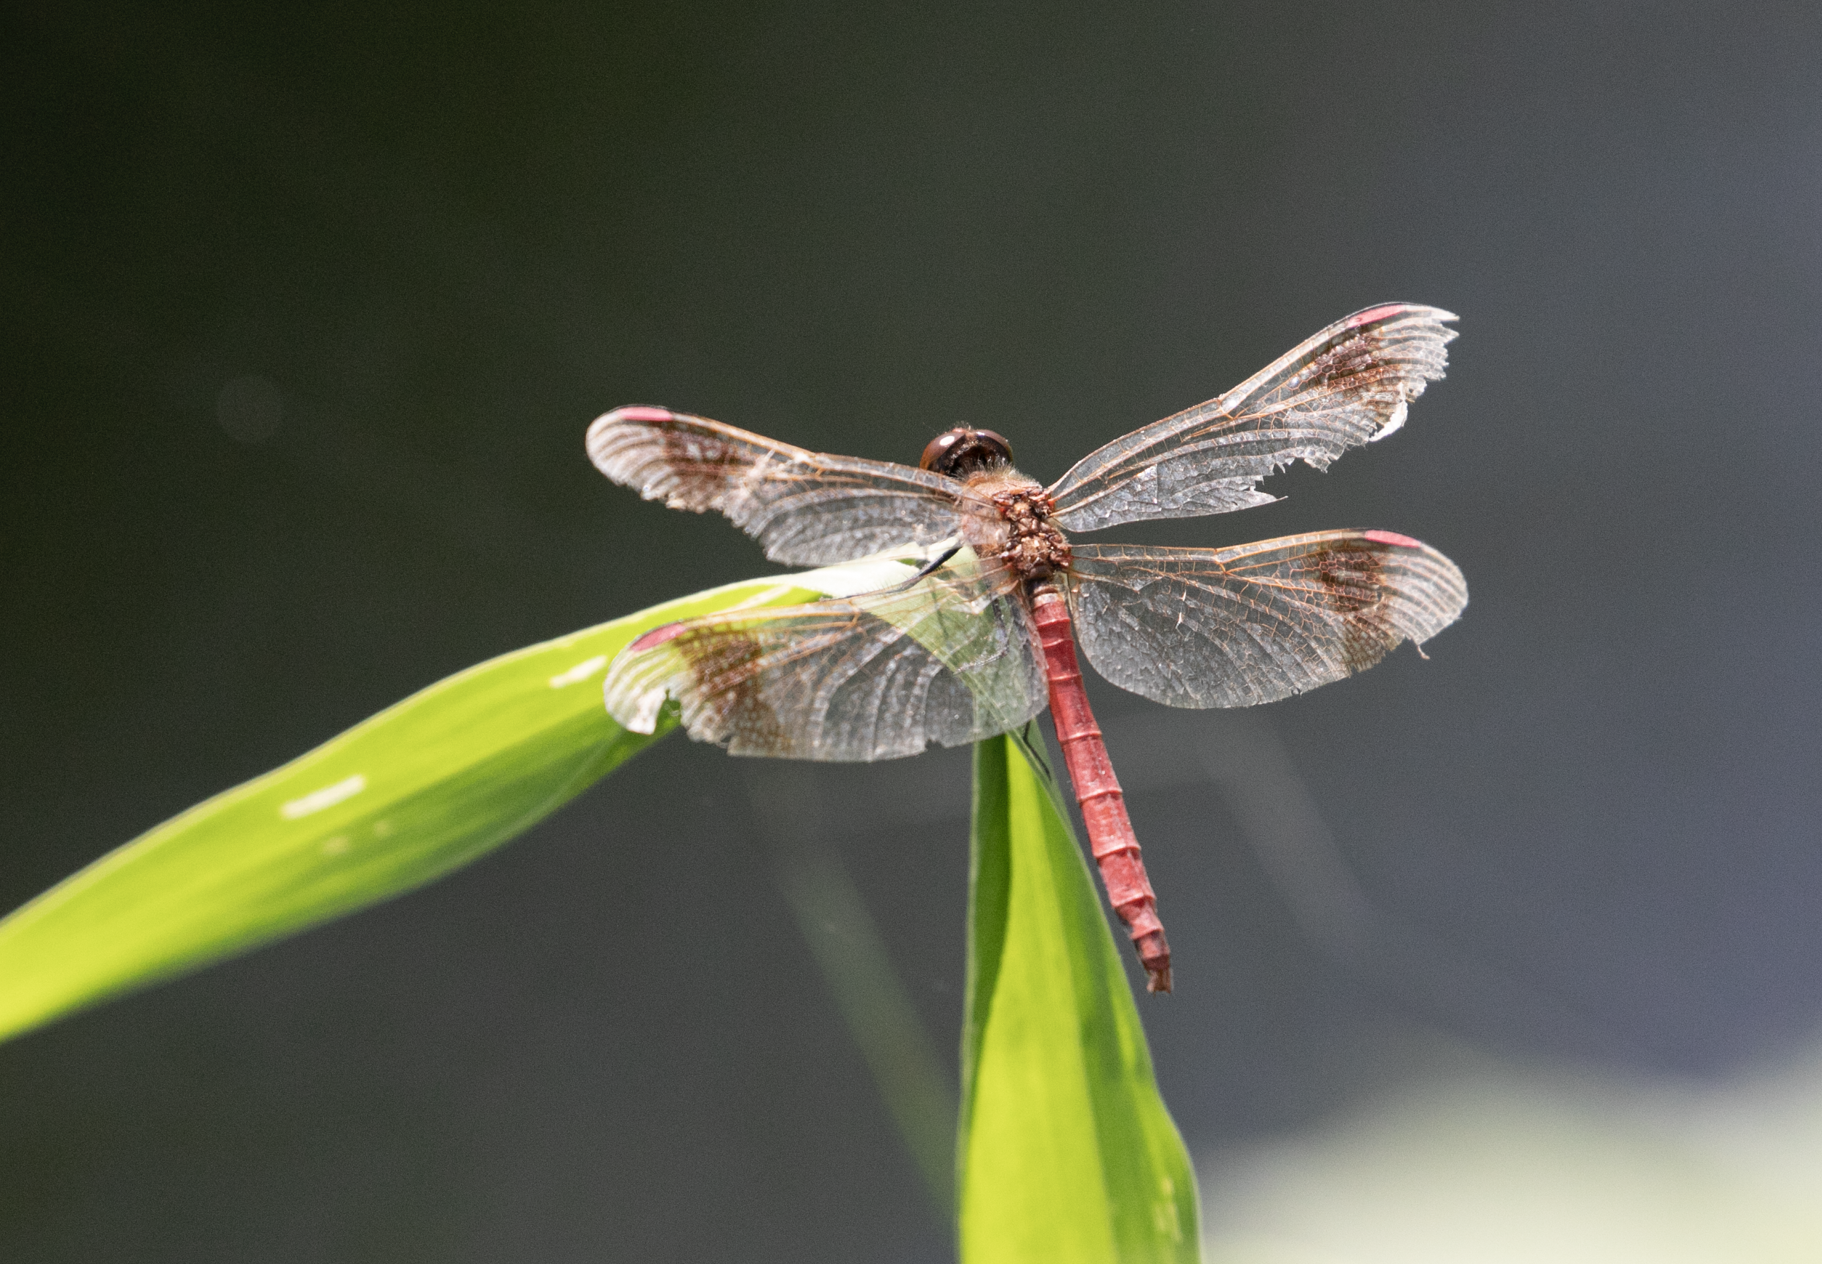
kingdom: Animalia
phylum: Arthropoda
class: Insecta
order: Odonata
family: Libellulidae
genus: Sympetrum
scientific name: Sympetrum pedemontanum
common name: Banded darter
